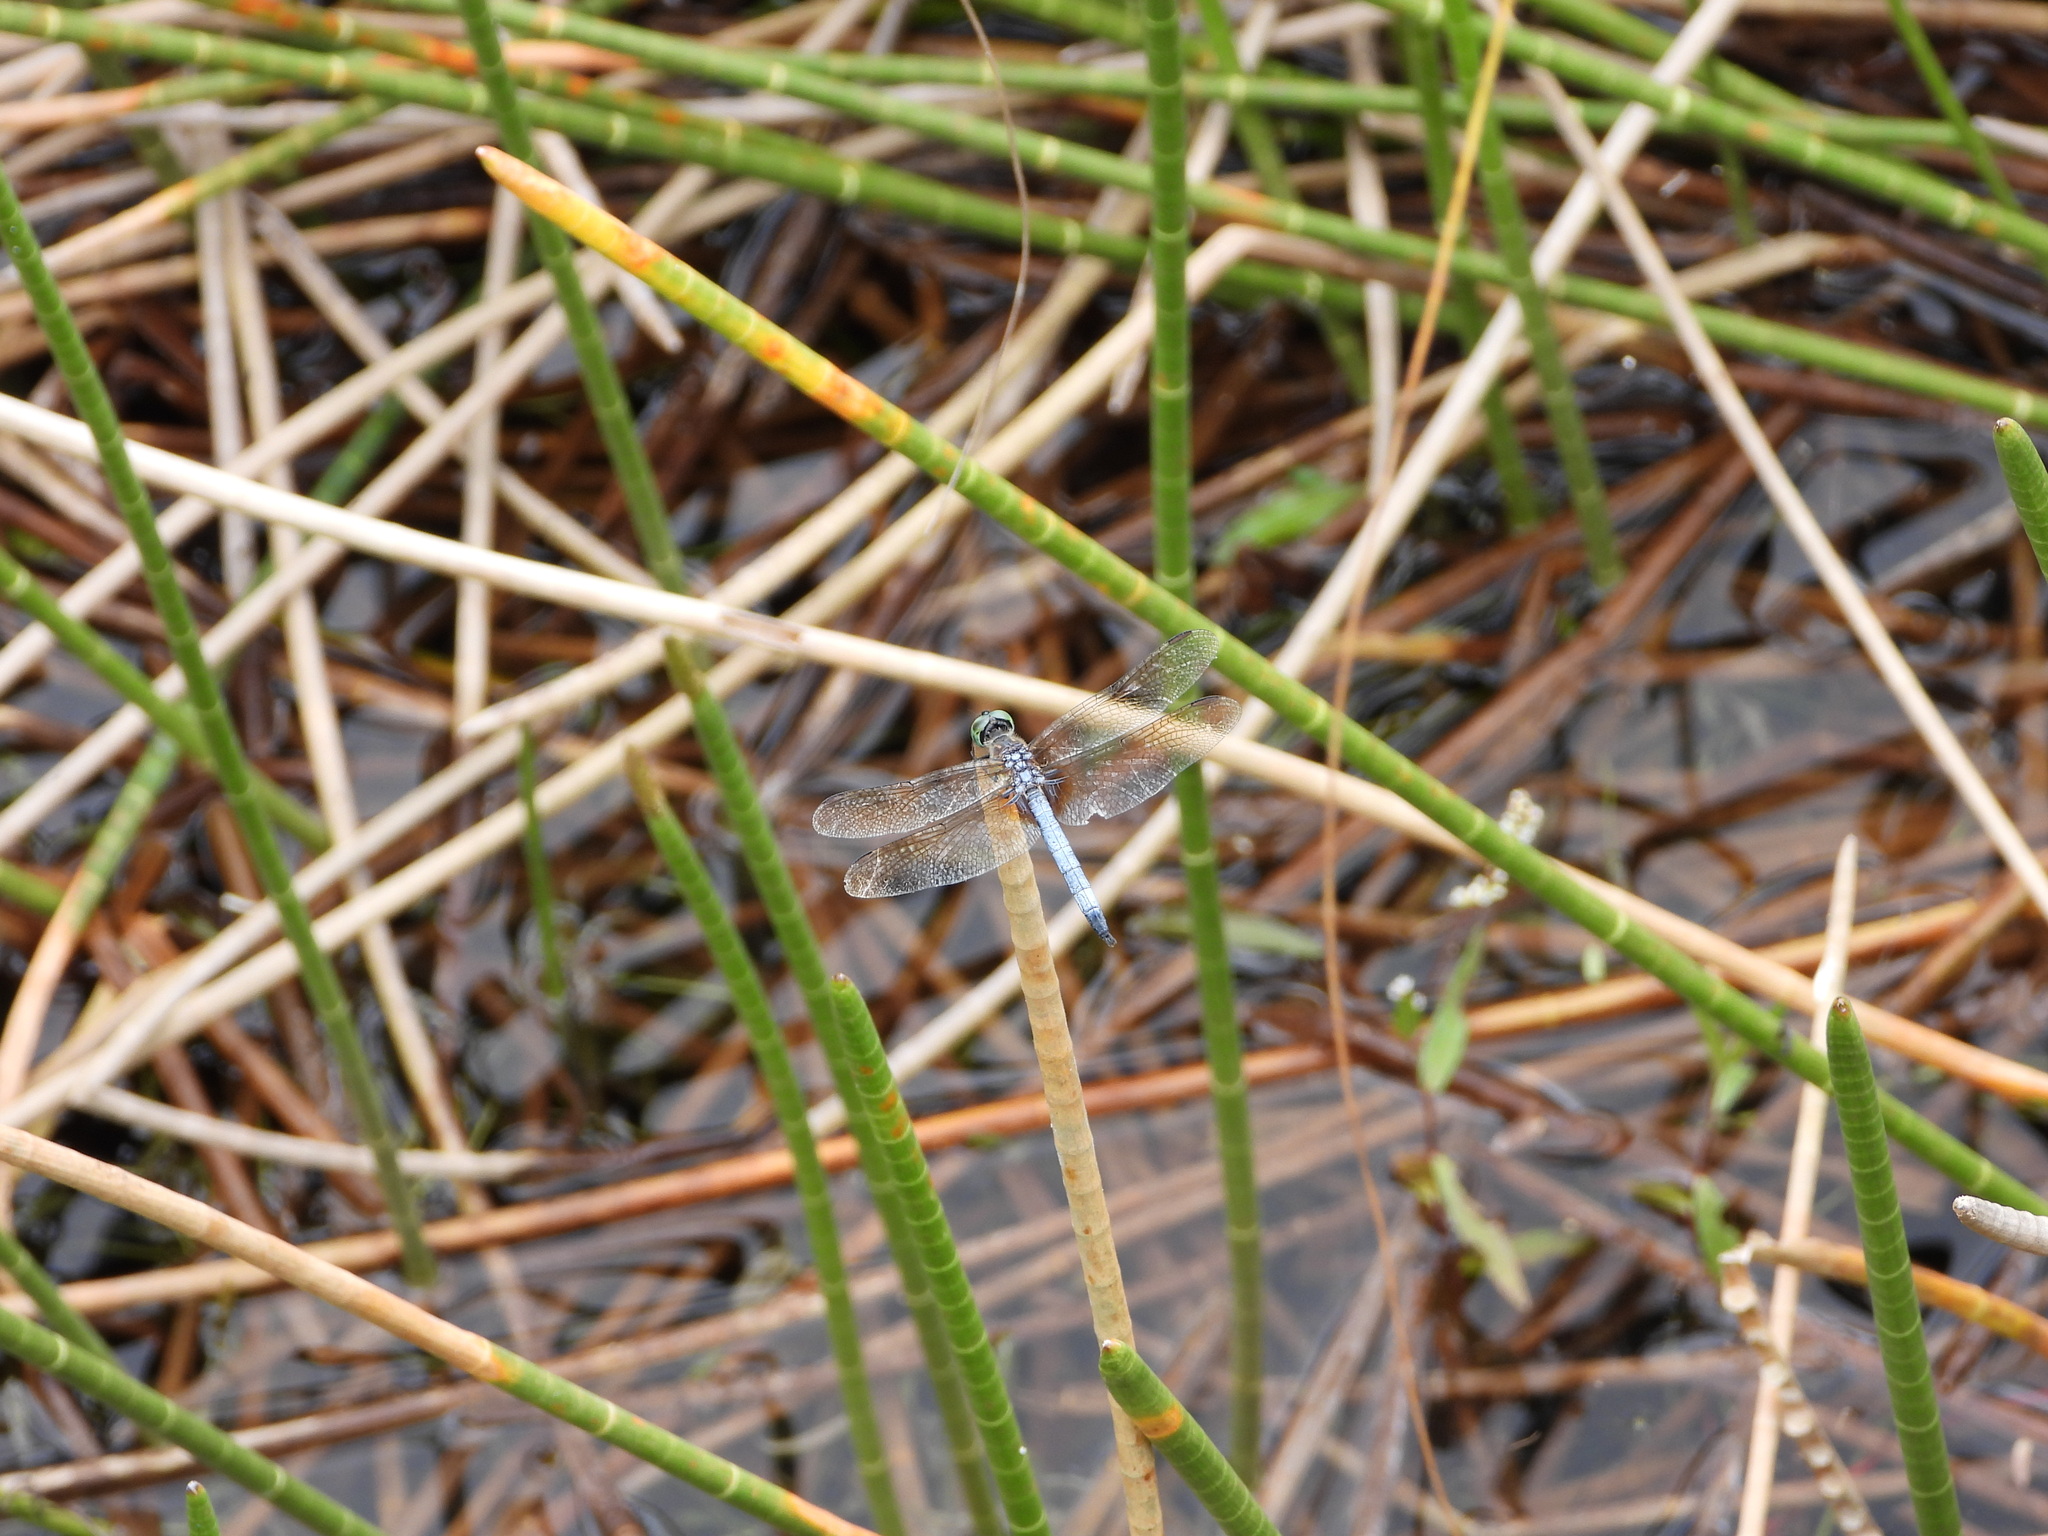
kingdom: Animalia
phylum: Arthropoda
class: Insecta
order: Odonata
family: Libellulidae
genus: Pachydiplax
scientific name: Pachydiplax longipennis
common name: Blue dasher
